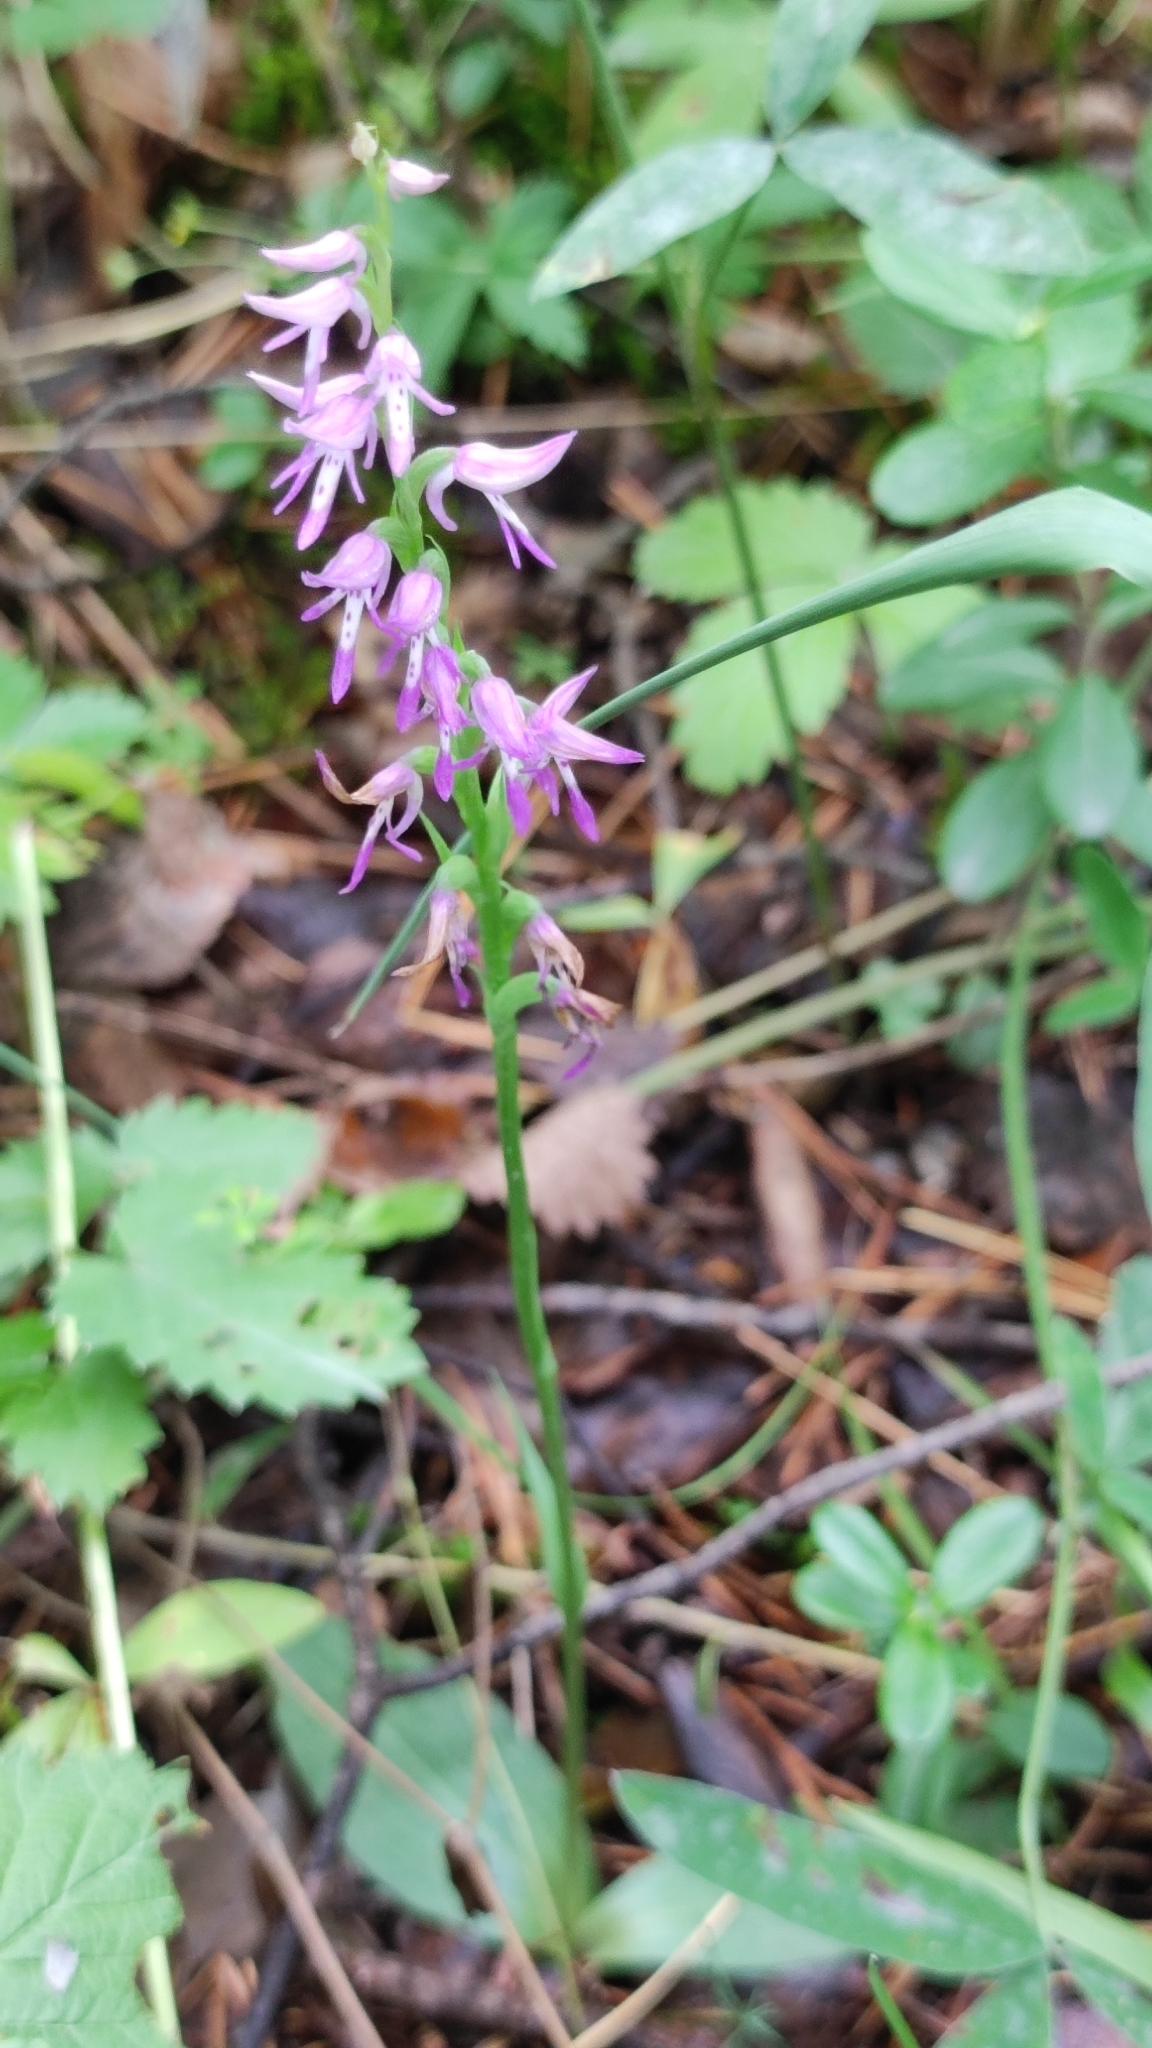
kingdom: Plantae
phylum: Tracheophyta
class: Liliopsida
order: Asparagales
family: Orchidaceae
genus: Hemipilia
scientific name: Hemipilia cucullata
